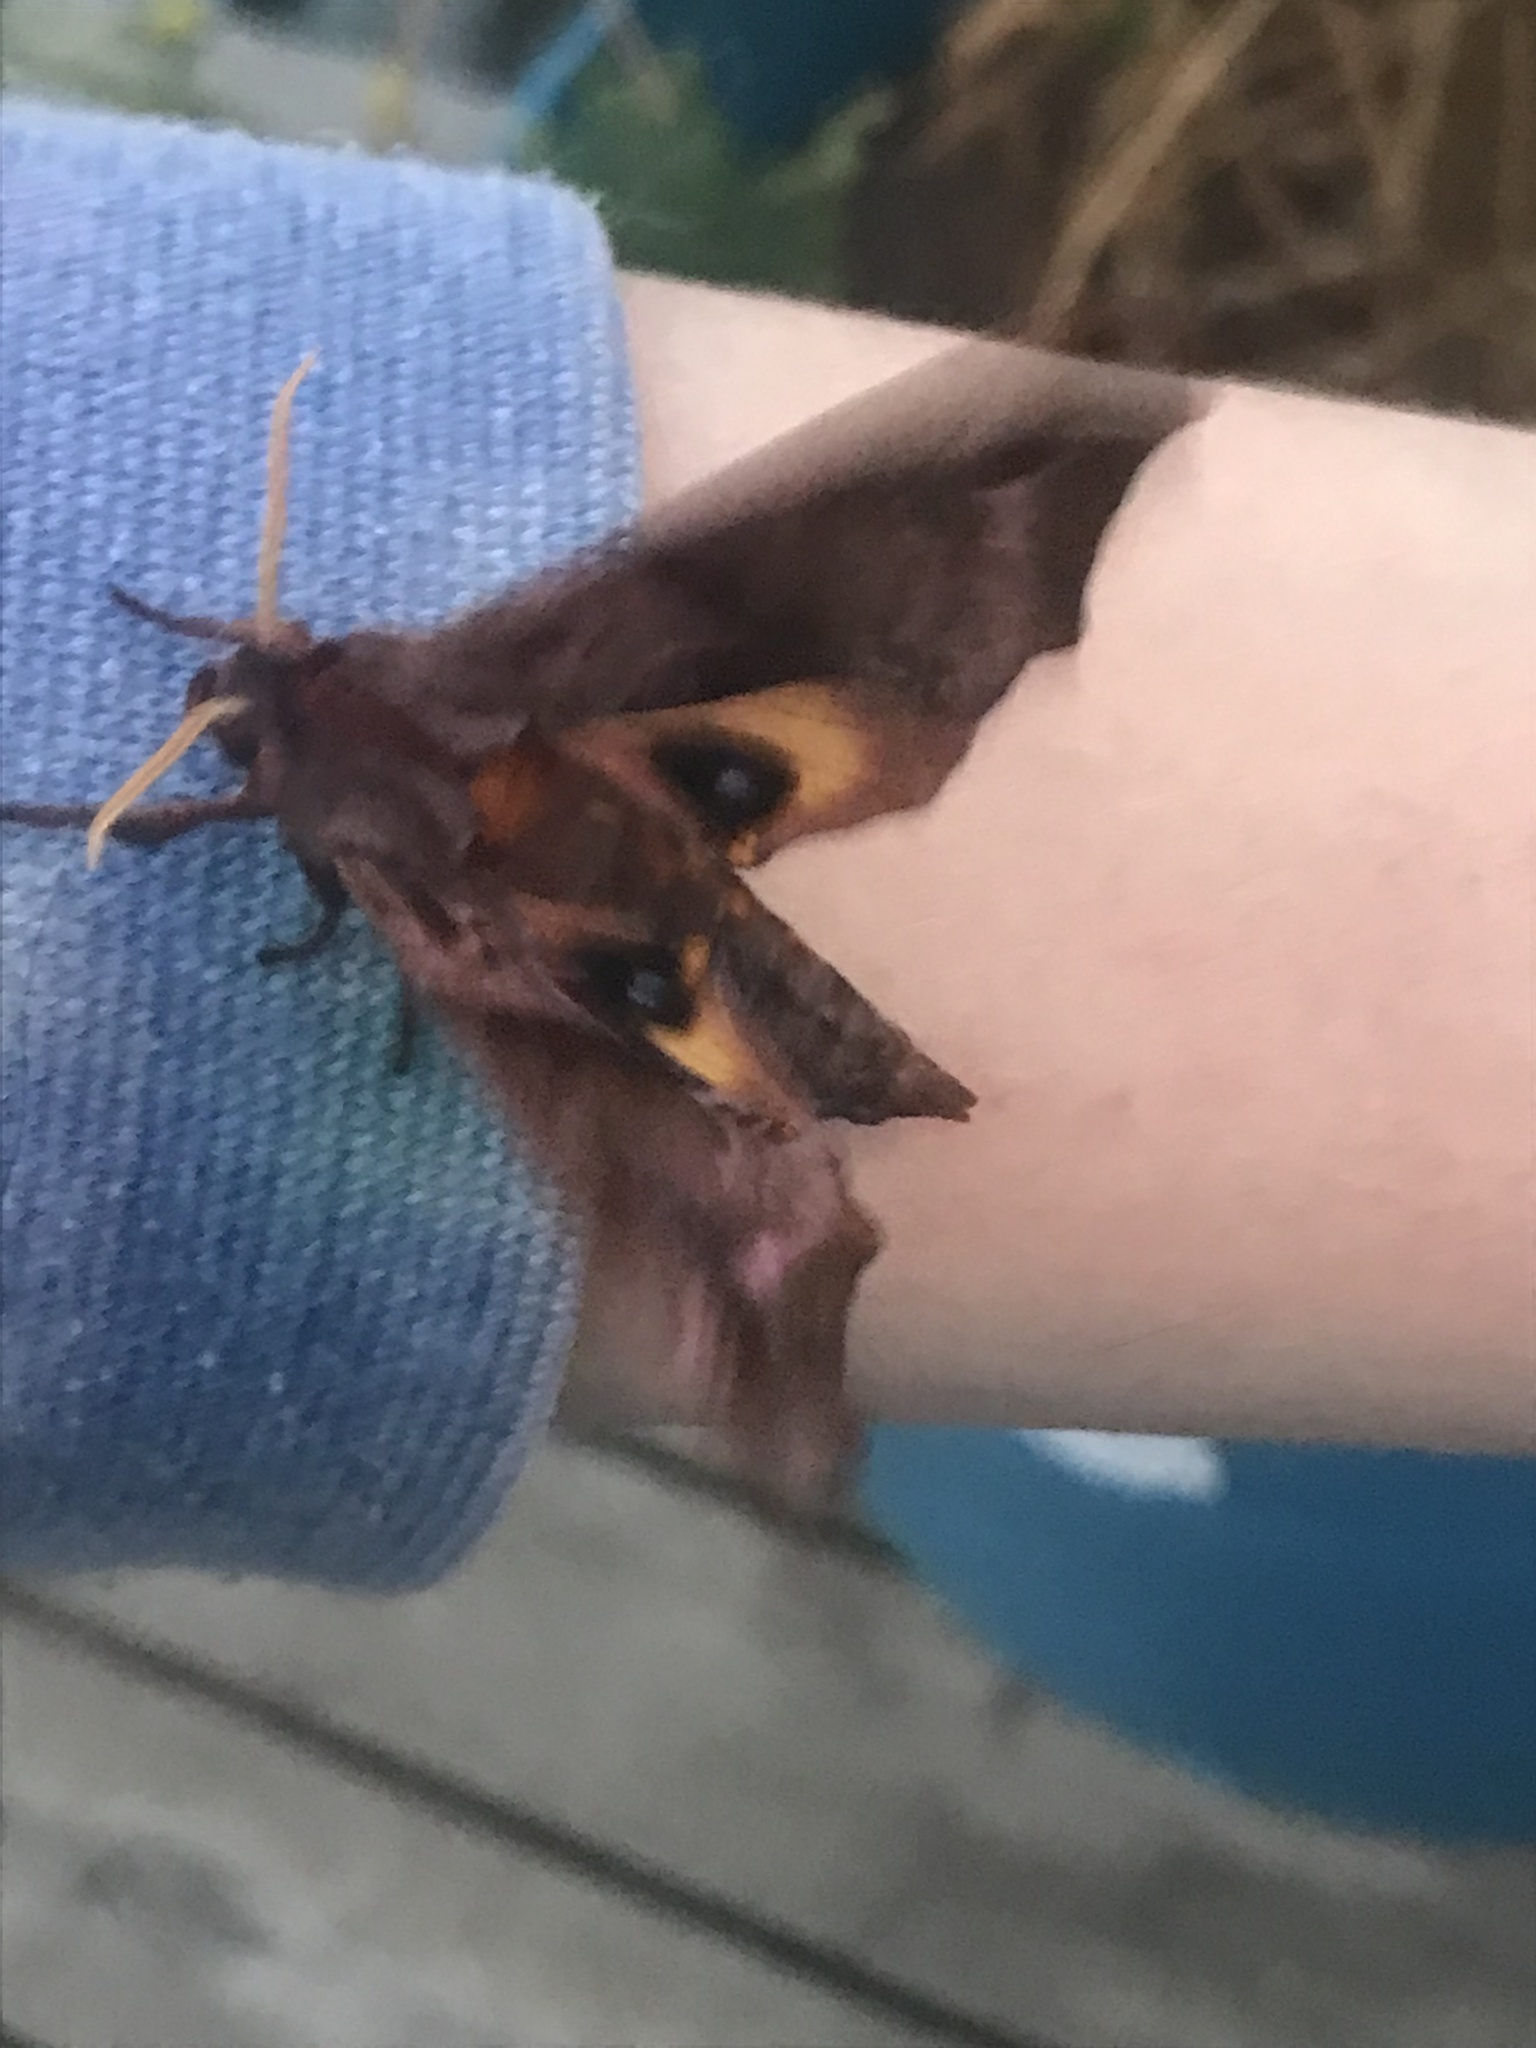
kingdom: Animalia
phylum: Arthropoda
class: Insecta
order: Lepidoptera
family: Sphingidae
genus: Paonias
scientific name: Paonias myops
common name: Small-eyed sphinx
